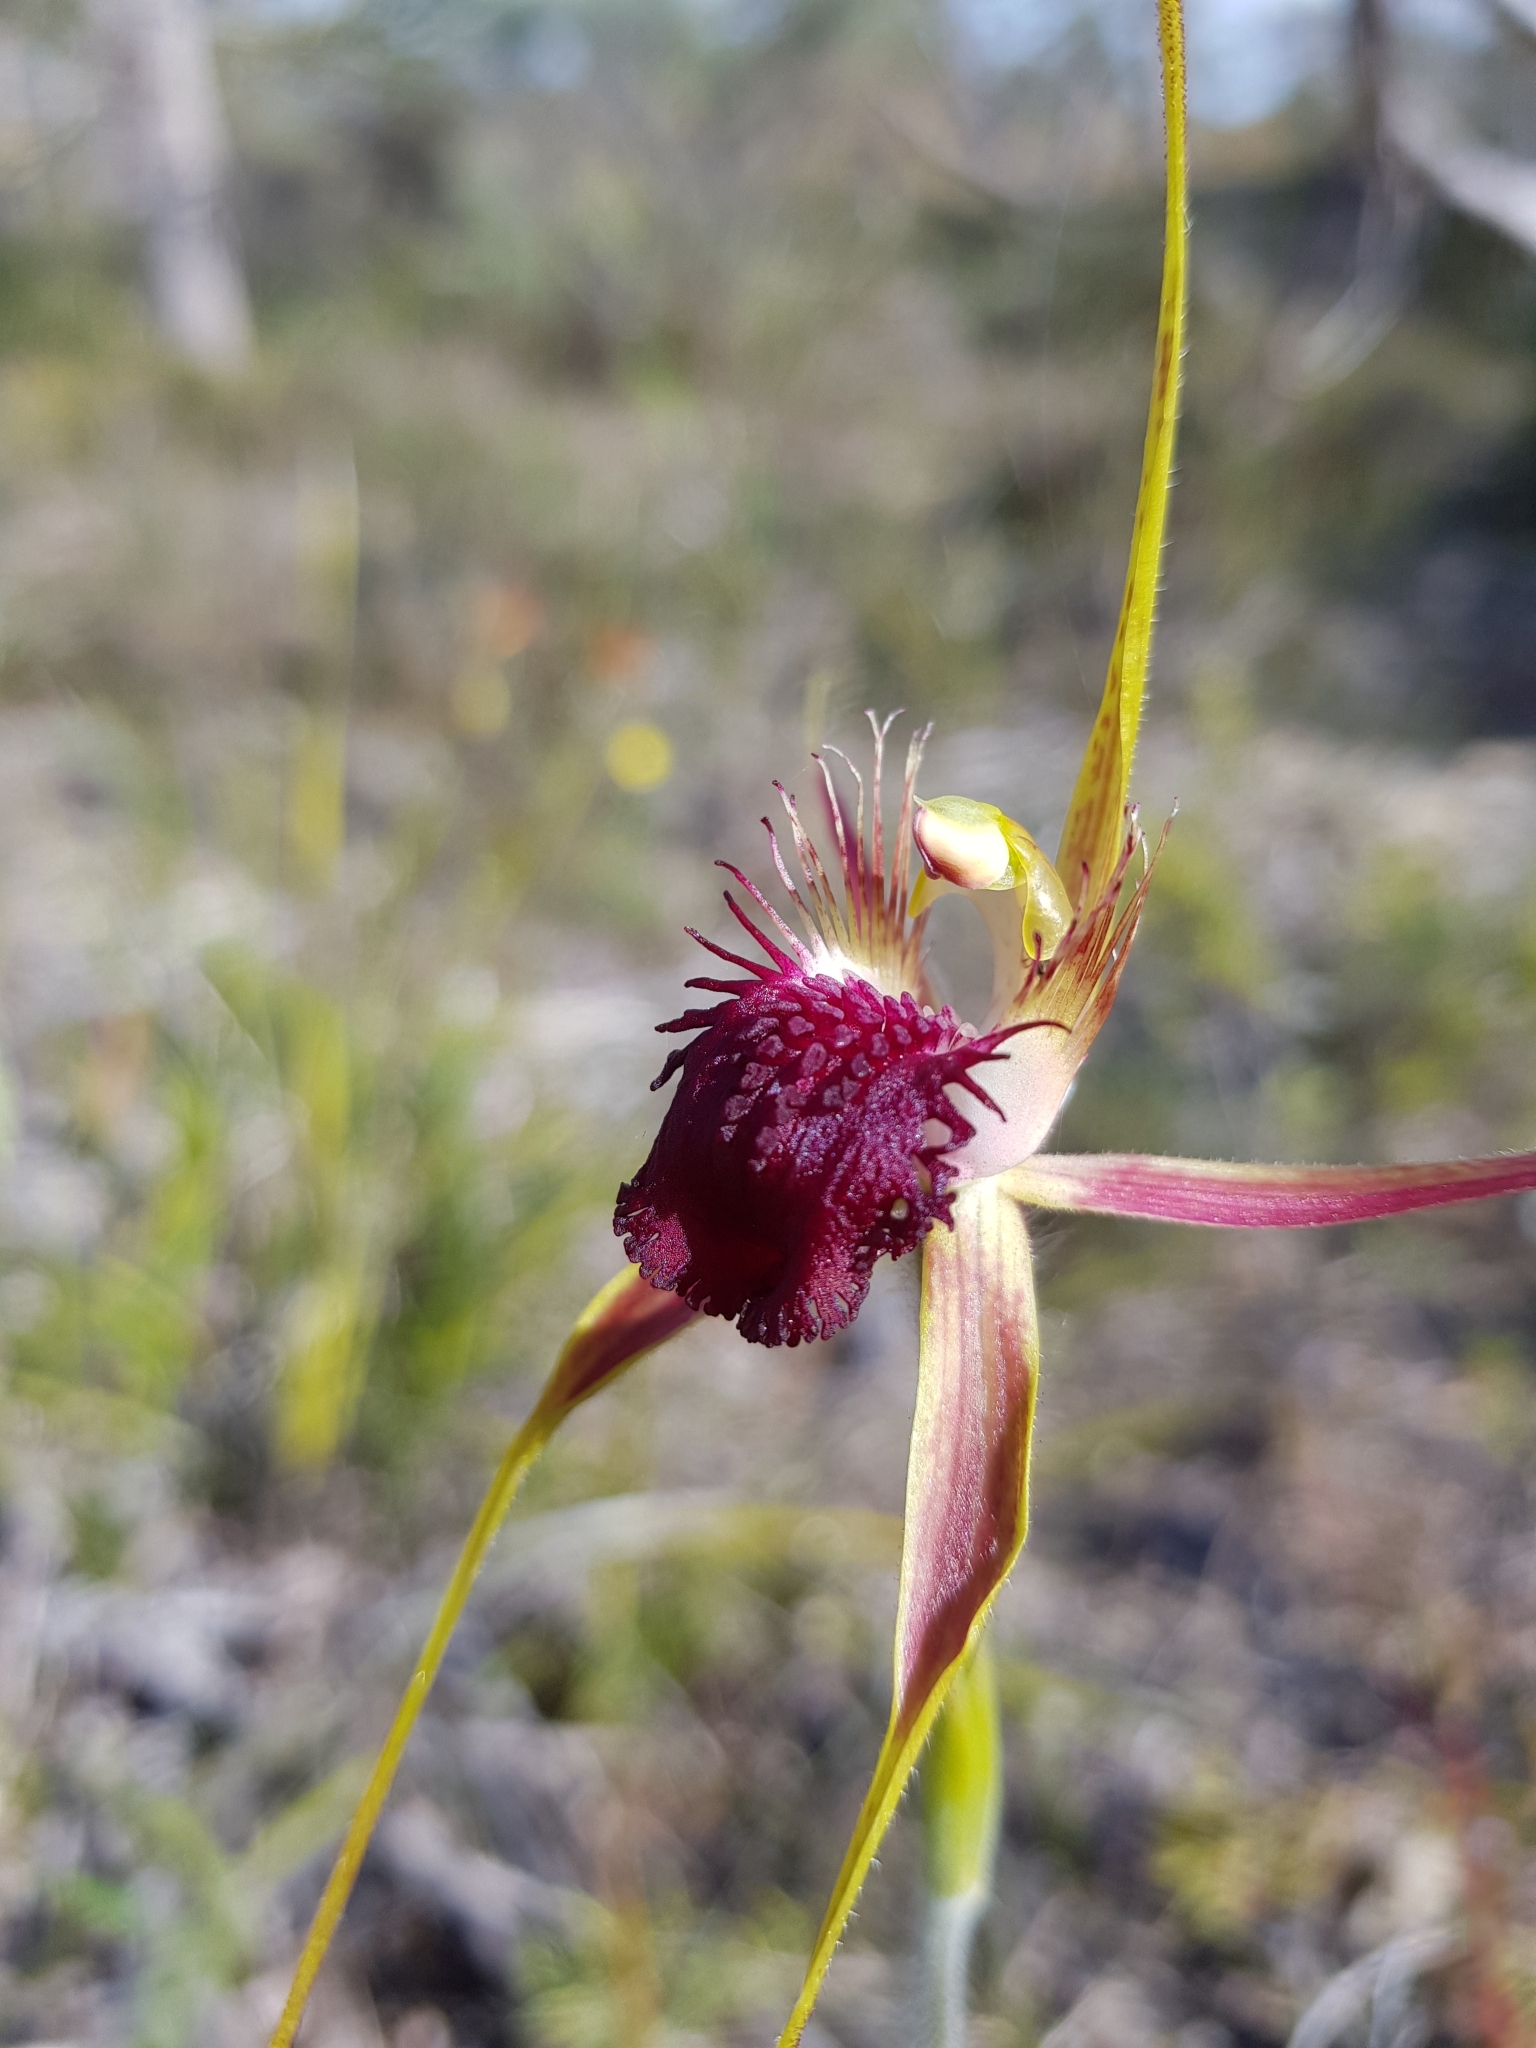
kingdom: Plantae
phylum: Tracheophyta
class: Liliopsida
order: Asparagales
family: Orchidaceae
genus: Caladenia
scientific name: Caladenia huegelii
